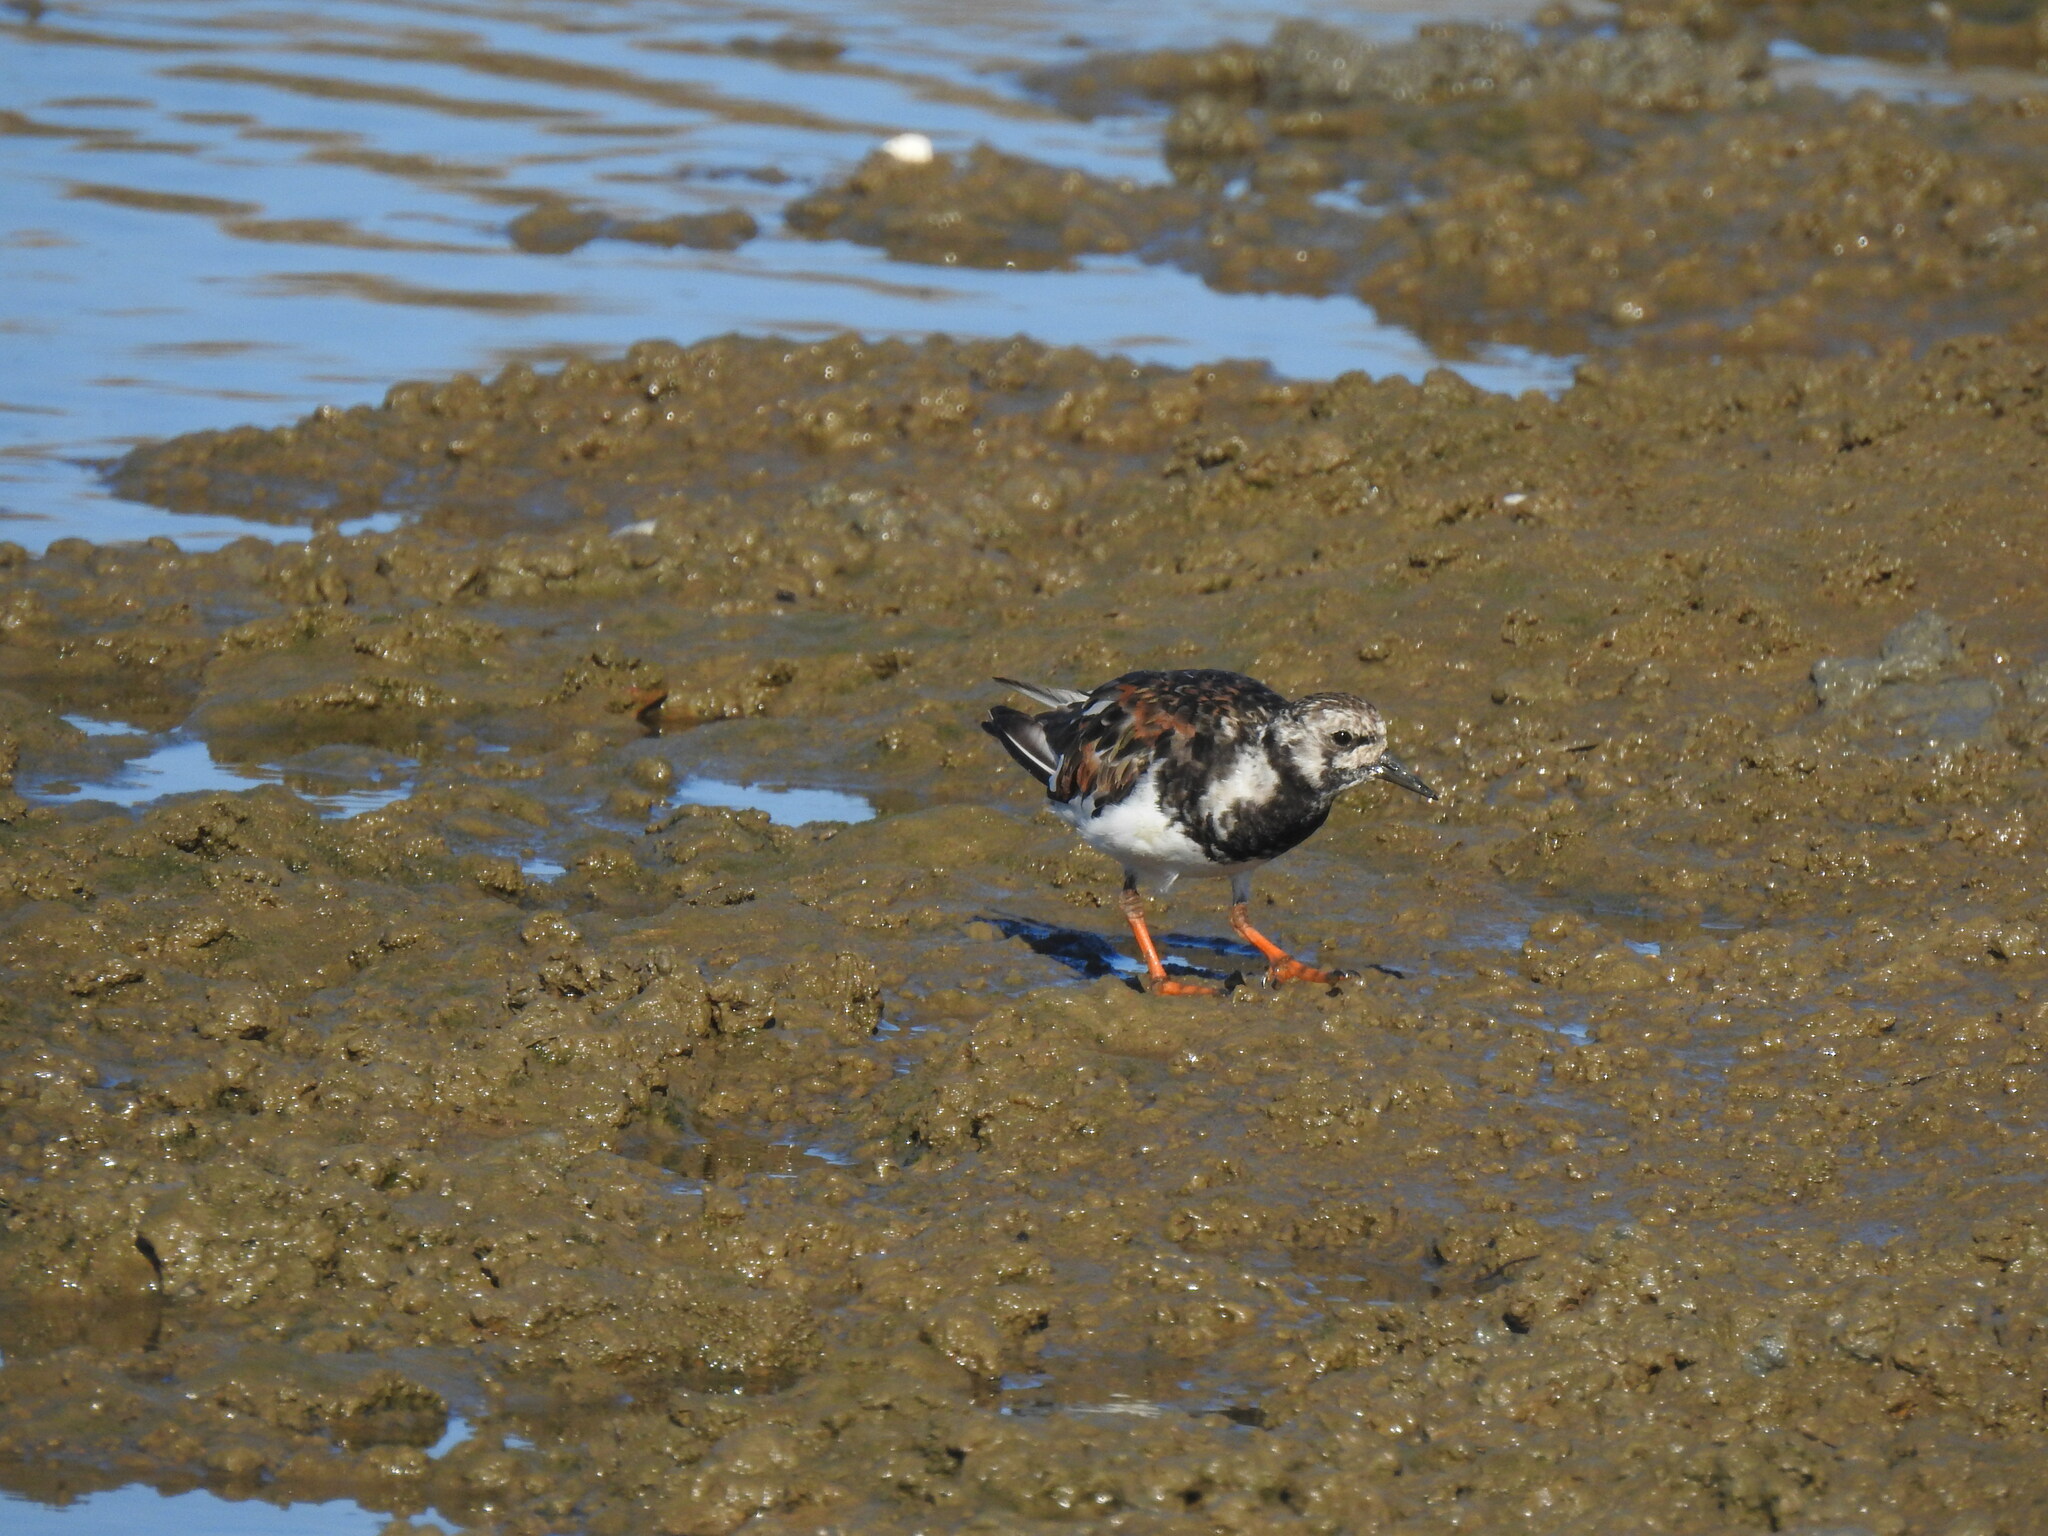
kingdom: Animalia
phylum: Chordata
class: Aves
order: Charadriiformes
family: Scolopacidae
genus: Arenaria
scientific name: Arenaria interpres
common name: Ruddy turnstone
